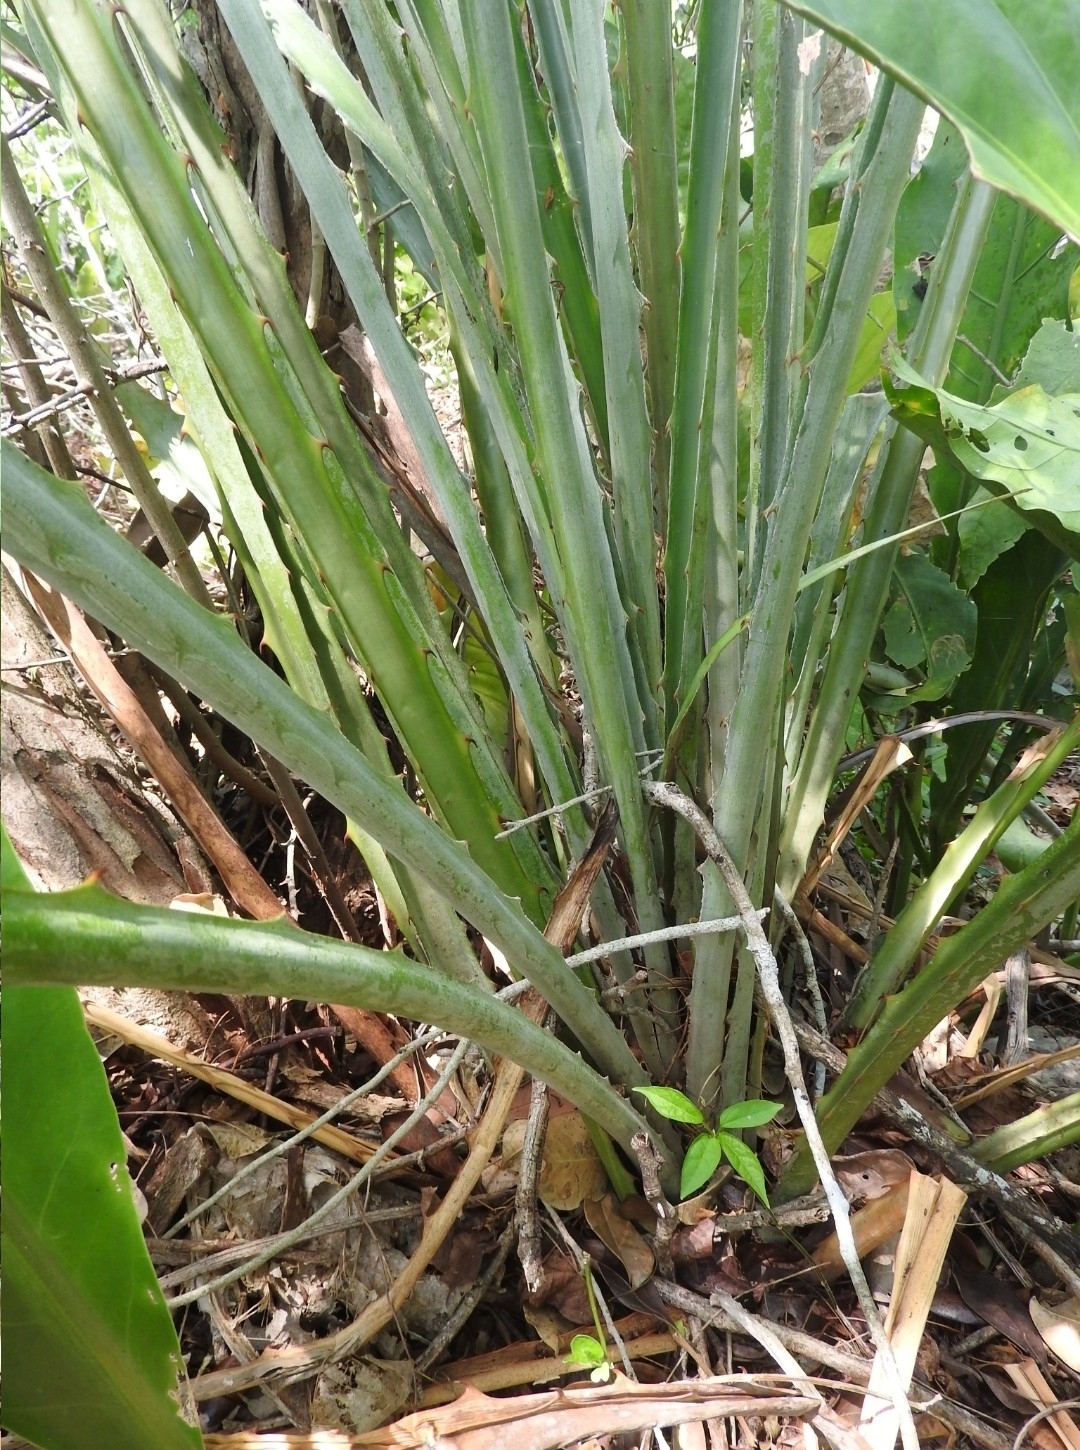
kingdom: Plantae
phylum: Tracheophyta
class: Liliopsida
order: Poales
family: Bromeliaceae
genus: Bromelia
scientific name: Bromelia pinguin
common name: Pinguin
